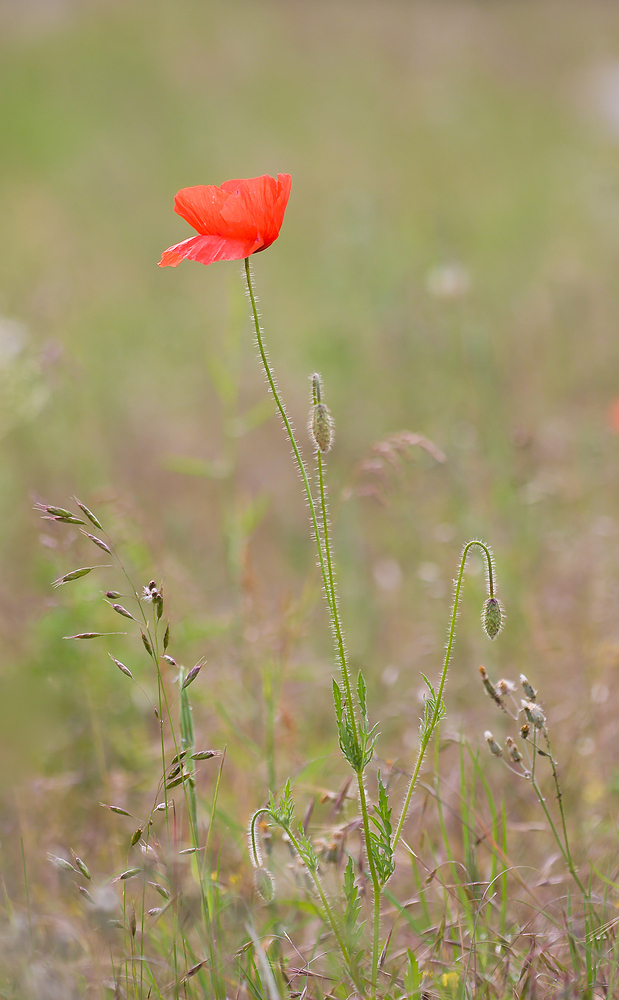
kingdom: Plantae
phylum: Tracheophyta
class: Magnoliopsida
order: Ranunculales
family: Papaveraceae
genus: Papaver
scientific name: Papaver rhoeas
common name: Corn poppy
